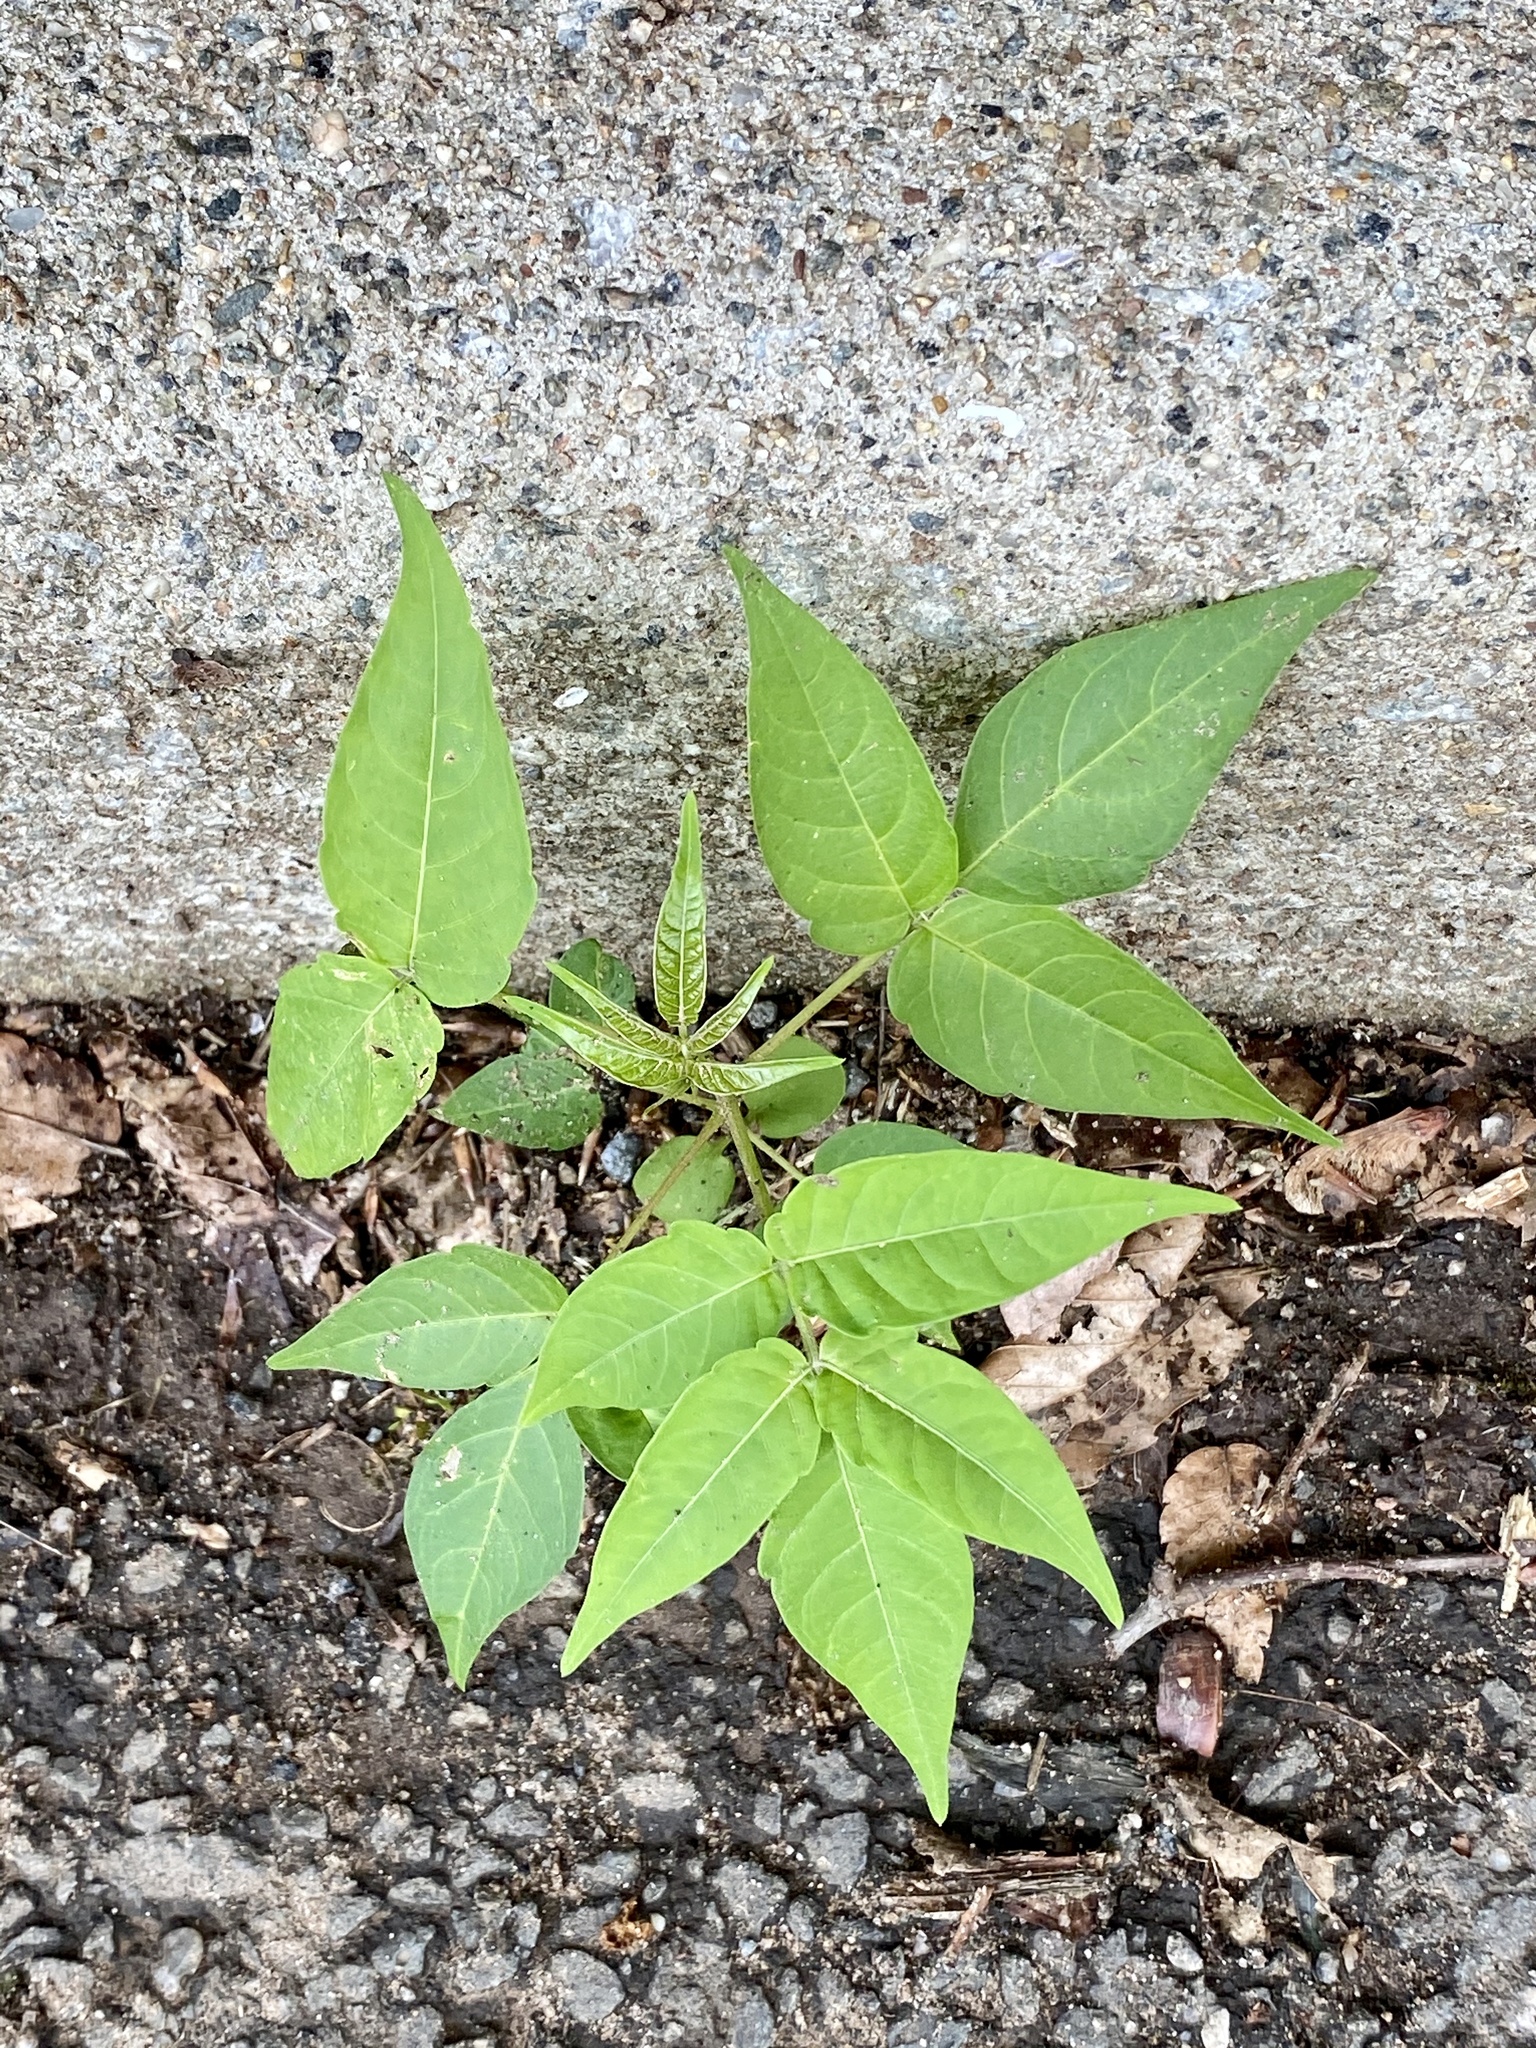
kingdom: Plantae
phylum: Tracheophyta
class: Magnoliopsida
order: Sapindales
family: Simaroubaceae
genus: Ailanthus
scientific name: Ailanthus altissima
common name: Tree-of-heaven
